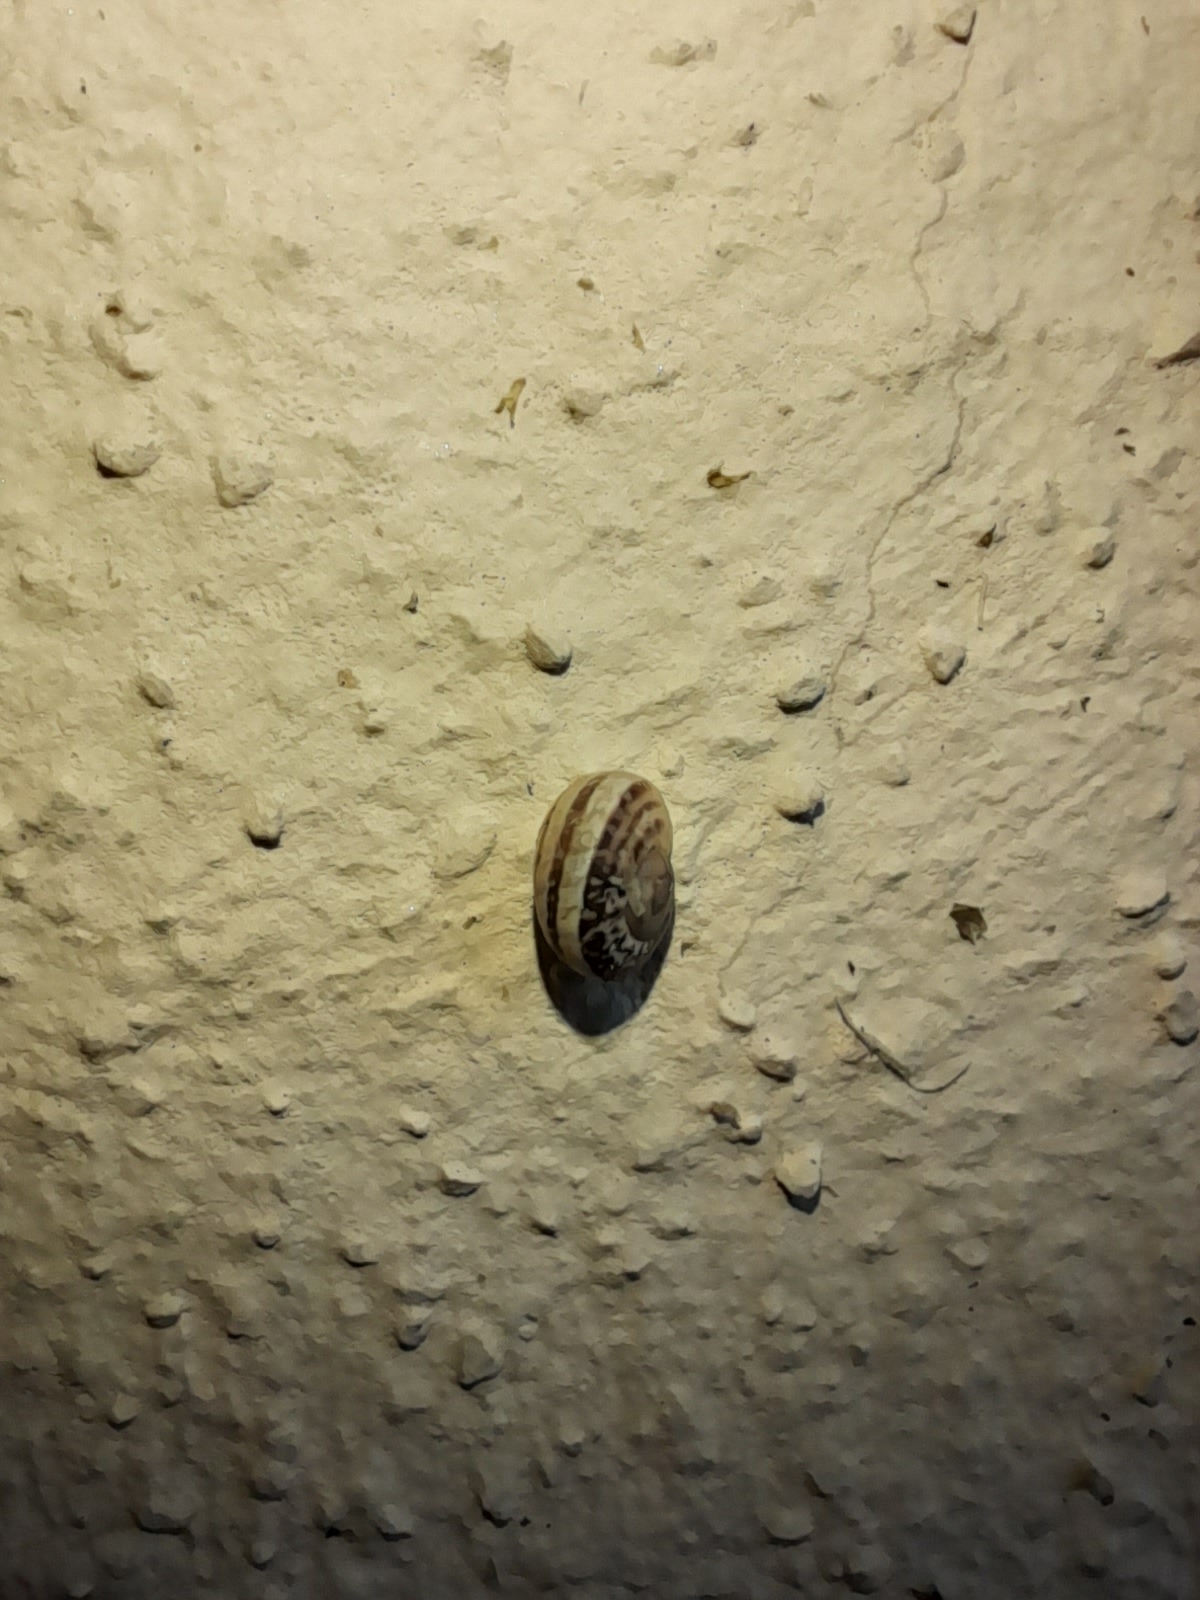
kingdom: Animalia
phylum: Mollusca
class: Gastropoda
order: Stylommatophora
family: Helicidae
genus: Eobania
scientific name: Eobania vermiculata
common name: Chocolateband snail
